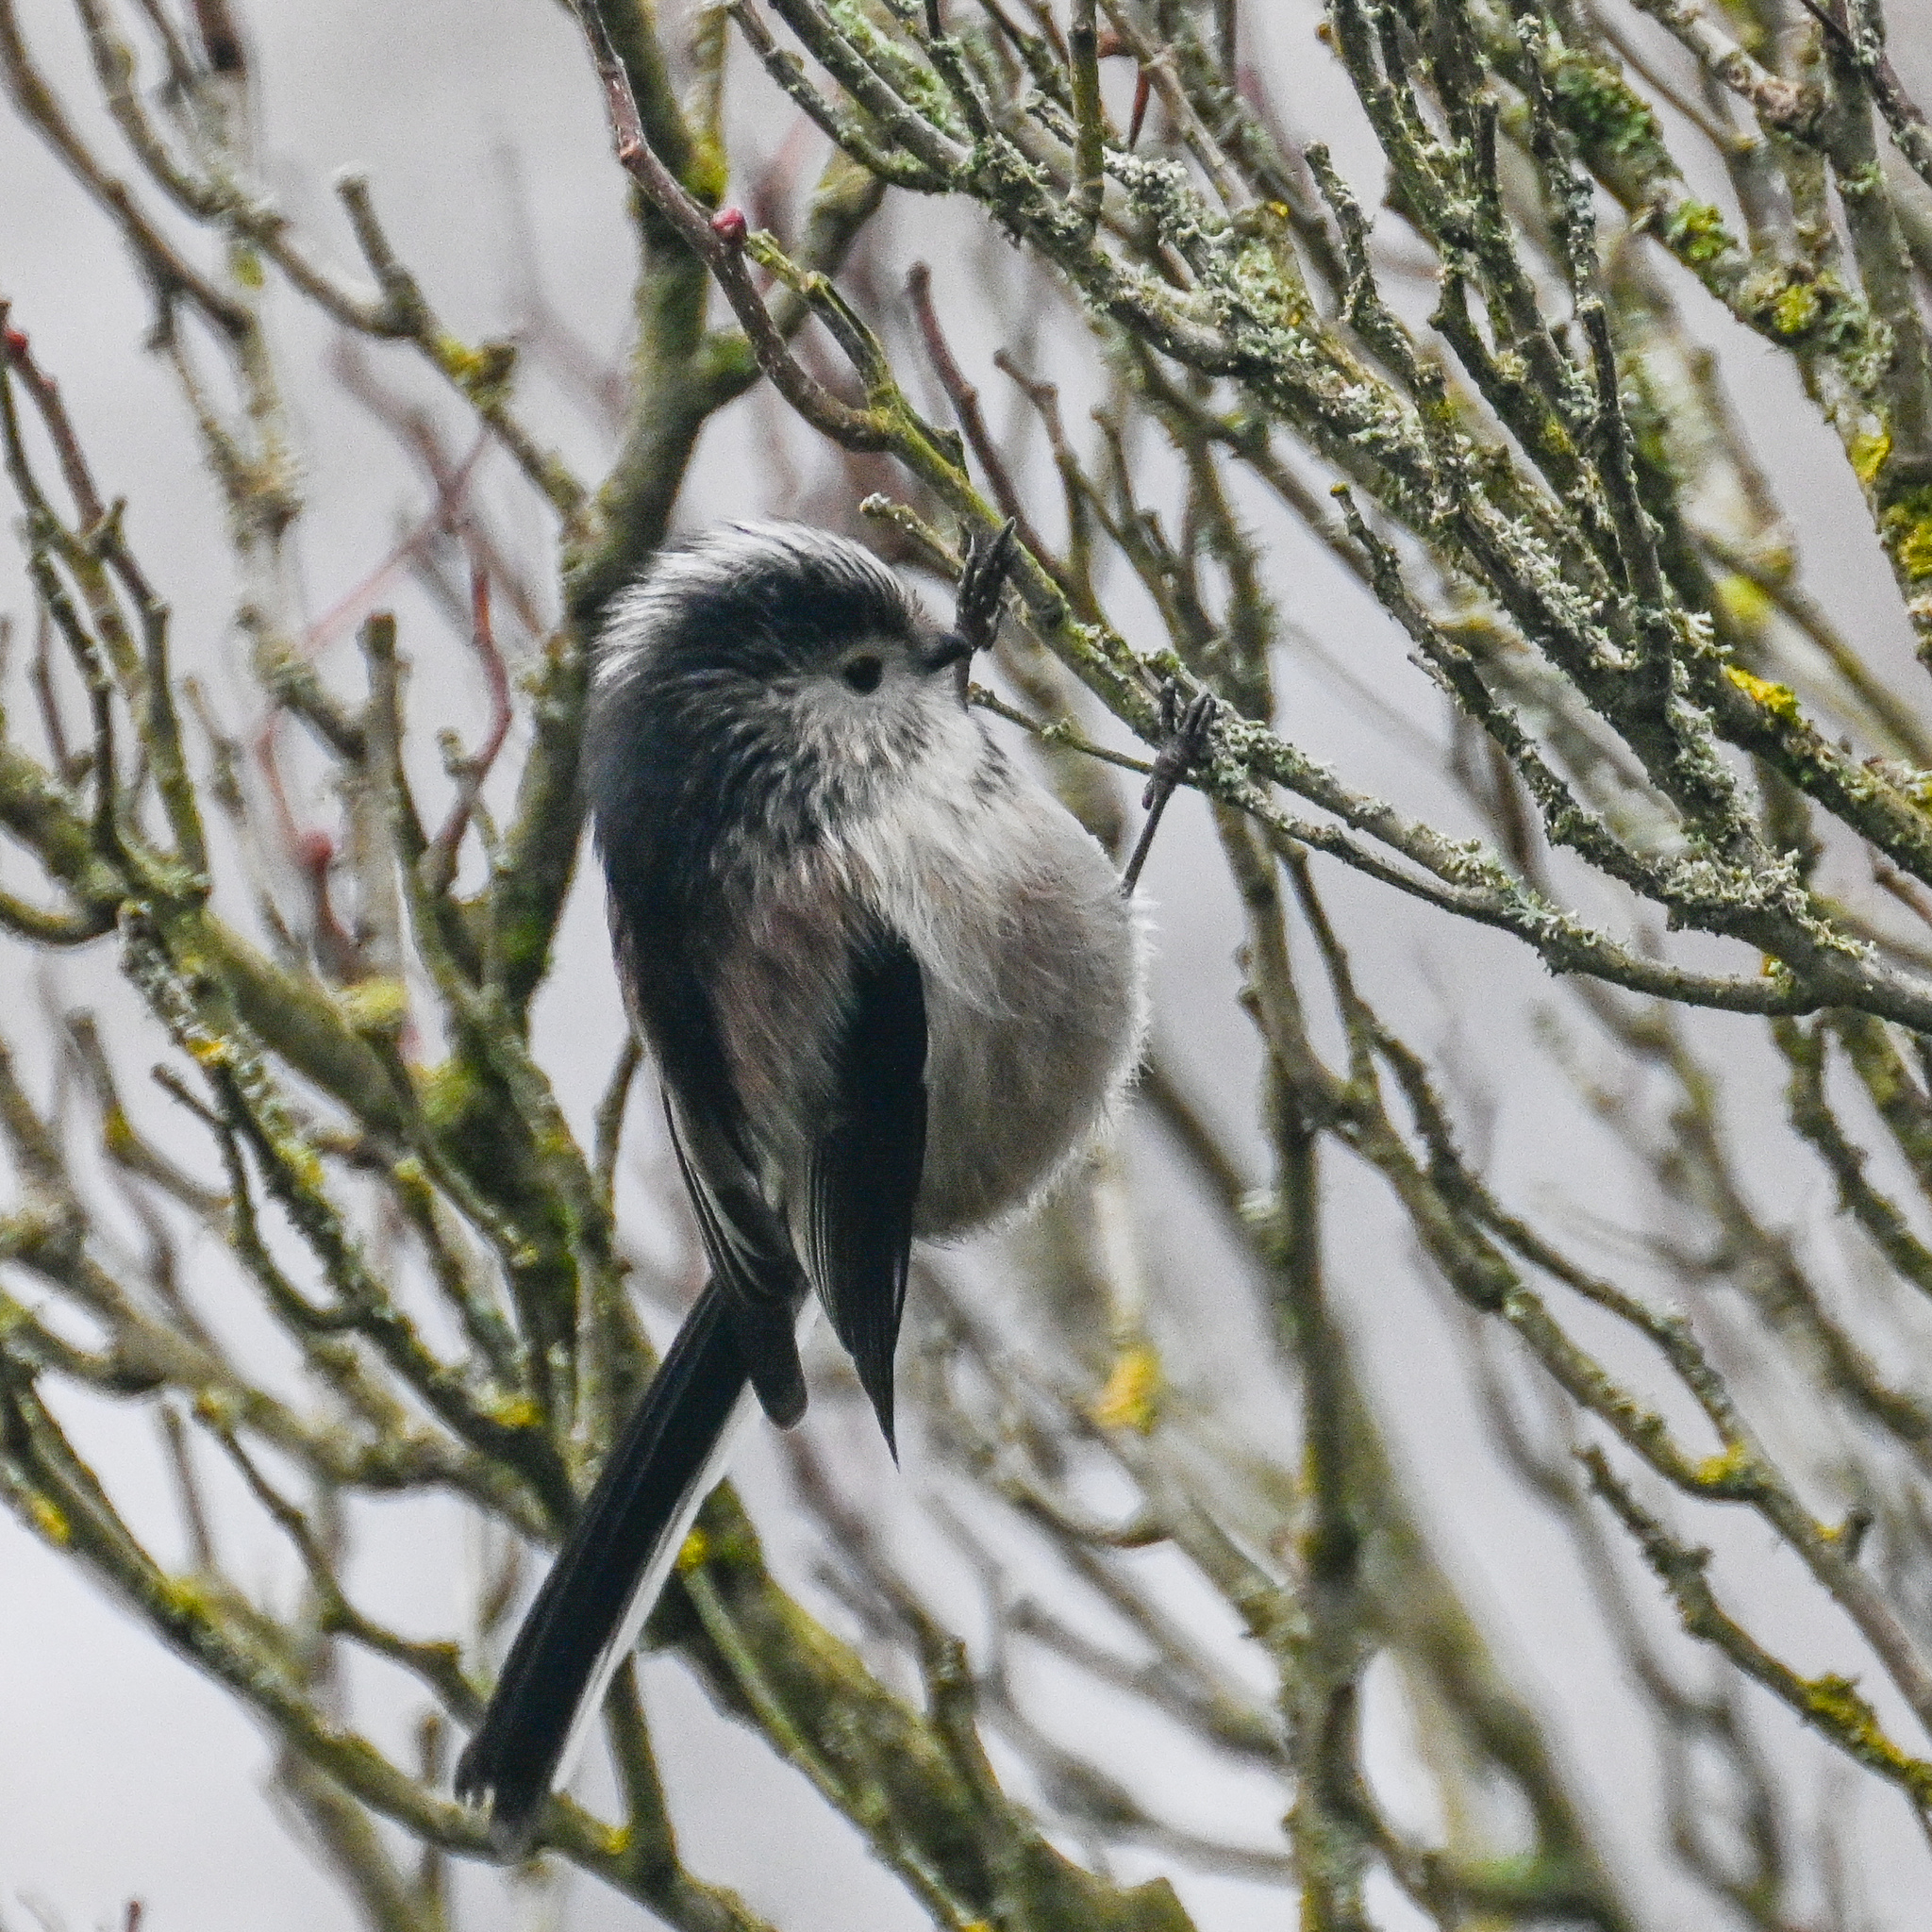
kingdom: Animalia
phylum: Chordata
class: Aves
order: Passeriformes
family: Aegithalidae
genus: Aegithalos
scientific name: Aegithalos caudatus
